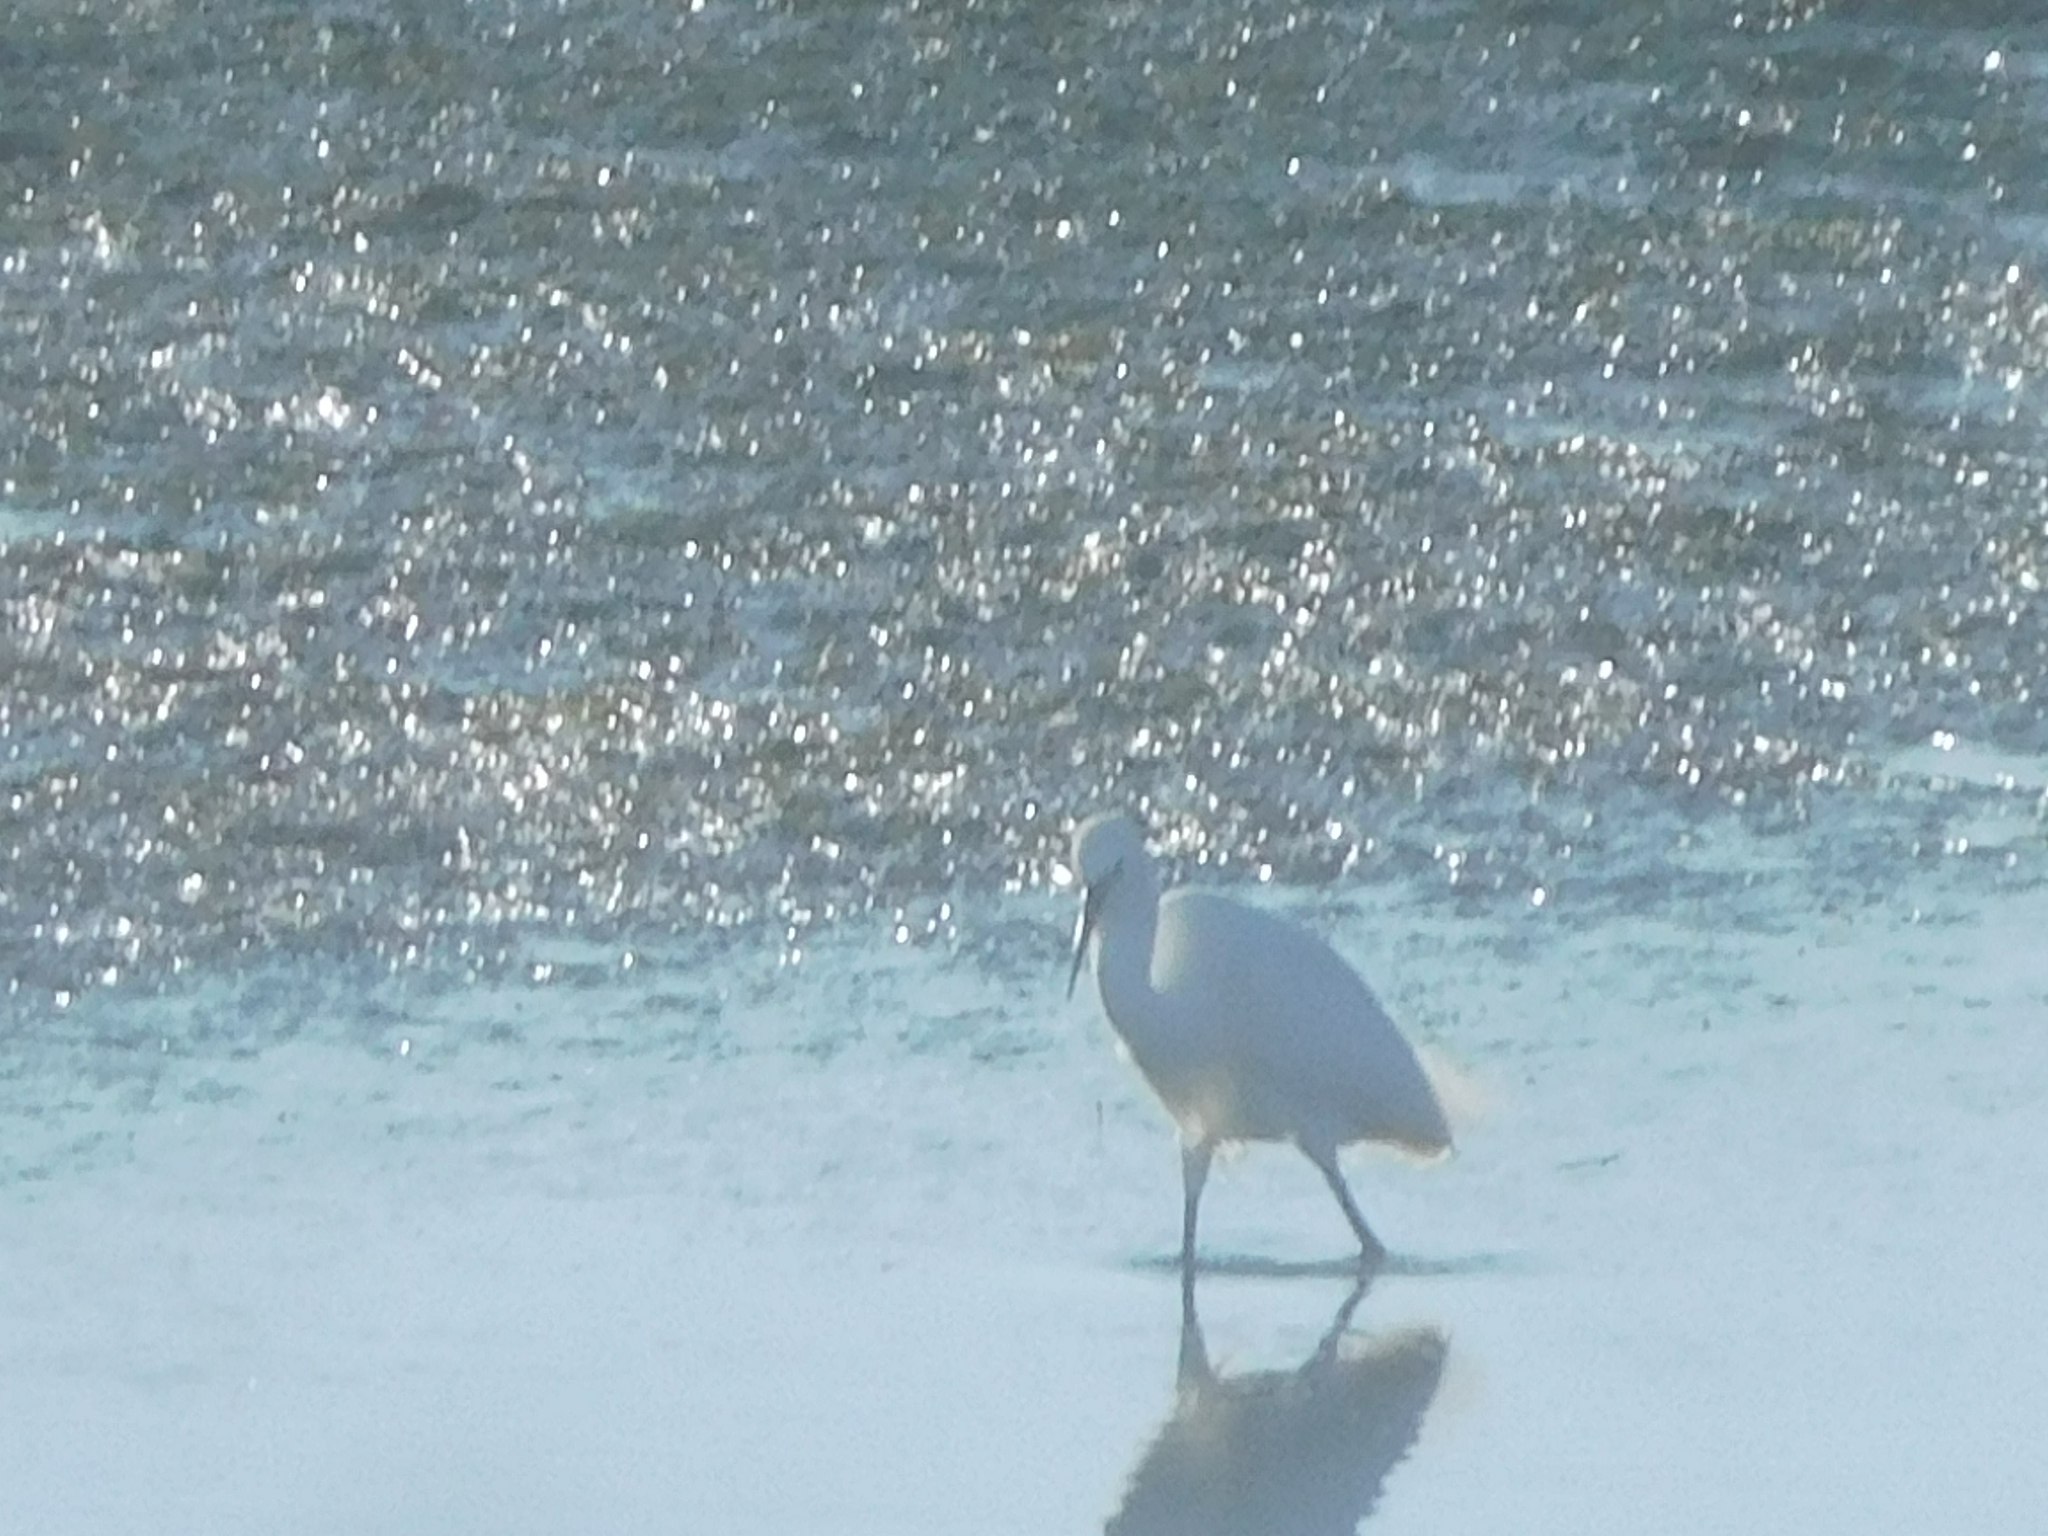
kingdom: Animalia
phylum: Chordata
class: Aves
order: Pelecaniformes
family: Ardeidae
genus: Egretta
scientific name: Egretta garzetta
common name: Little egret
